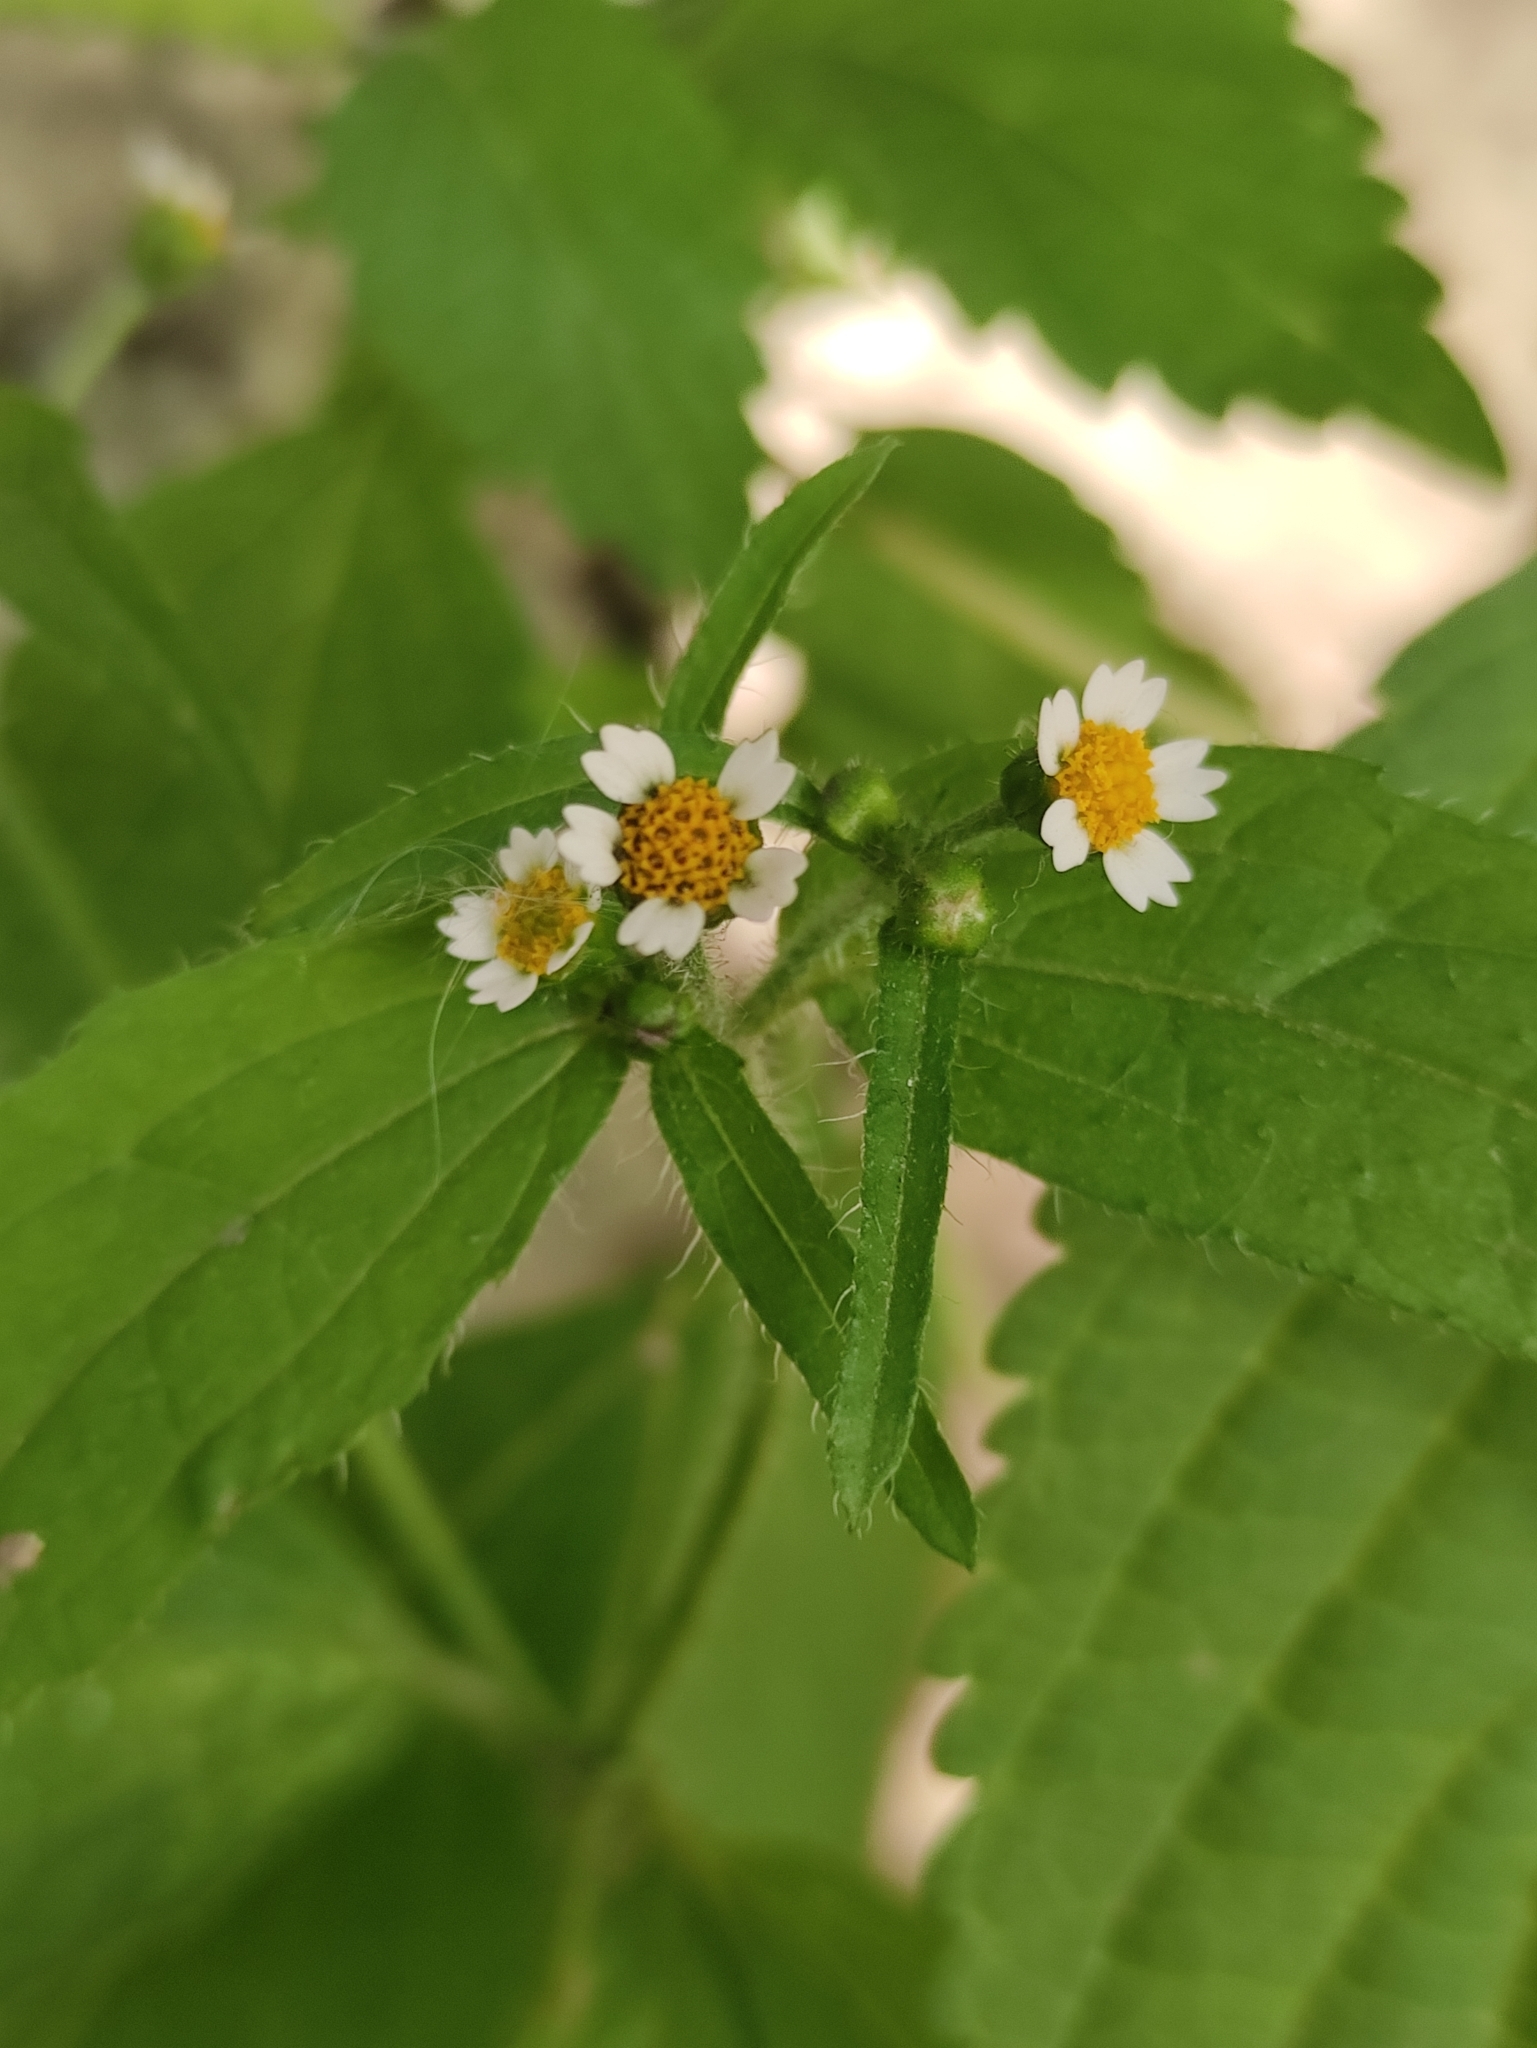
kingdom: Plantae
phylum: Tracheophyta
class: Magnoliopsida
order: Asterales
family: Asteraceae
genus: Galinsoga
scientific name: Galinsoga quadriradiata
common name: Shaggy soldier
